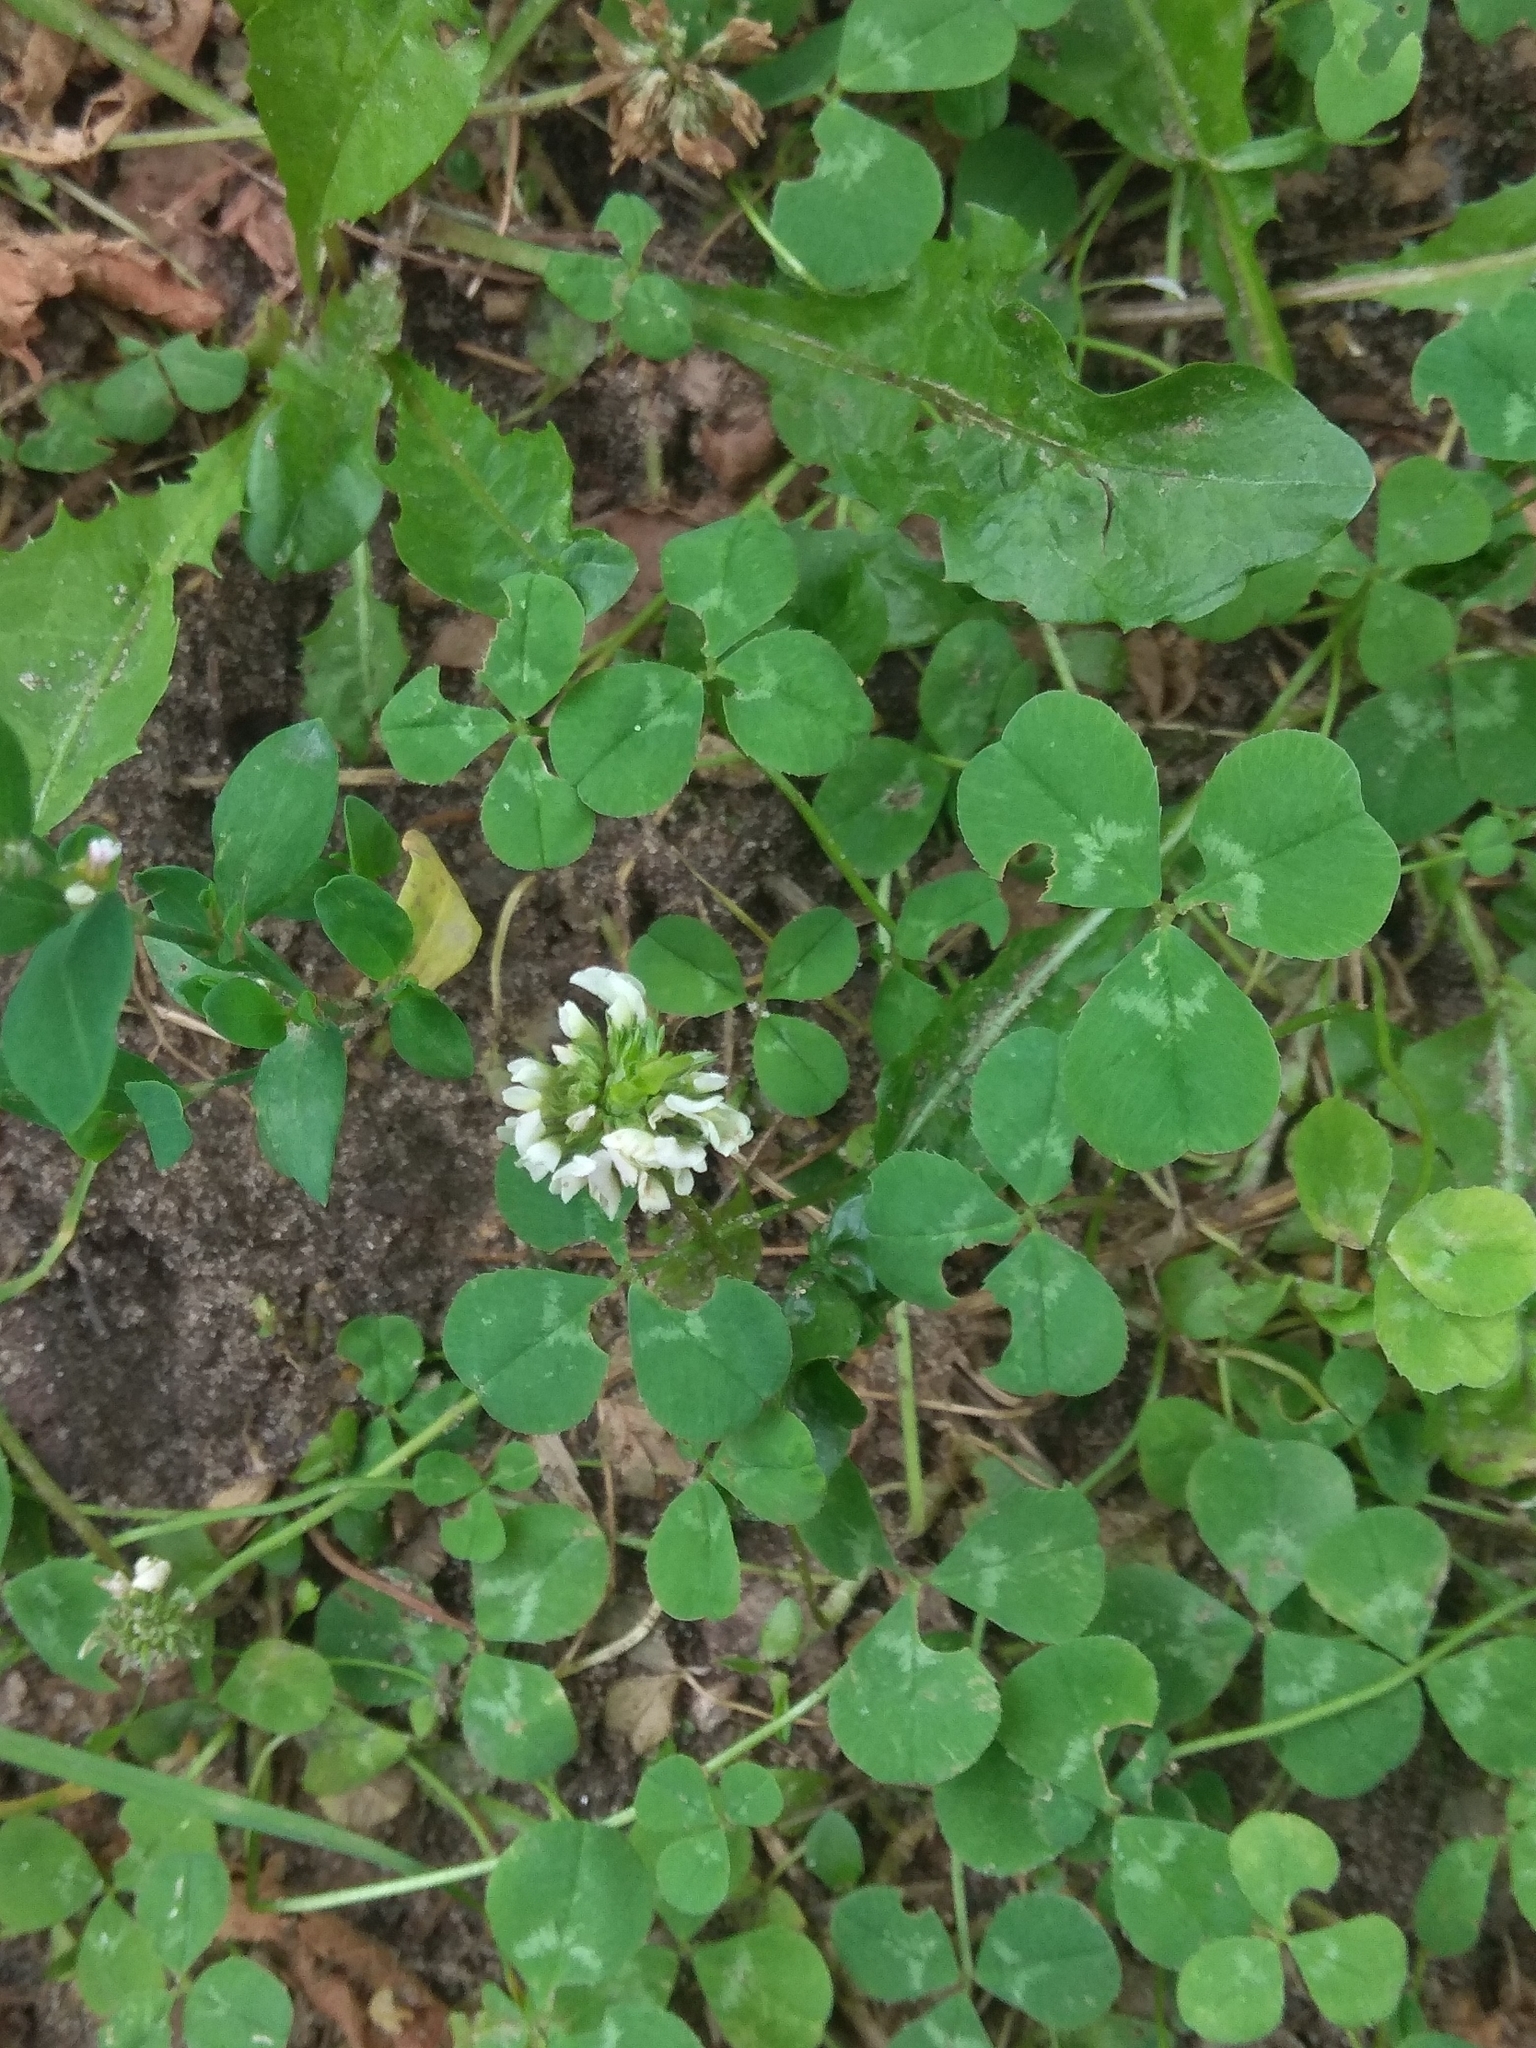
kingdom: Plantae
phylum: Tracheophyta
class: Magnoliopsida
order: Fabales
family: Fabaceae
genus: Trifolium
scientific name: Trifolium repens
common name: White clover
